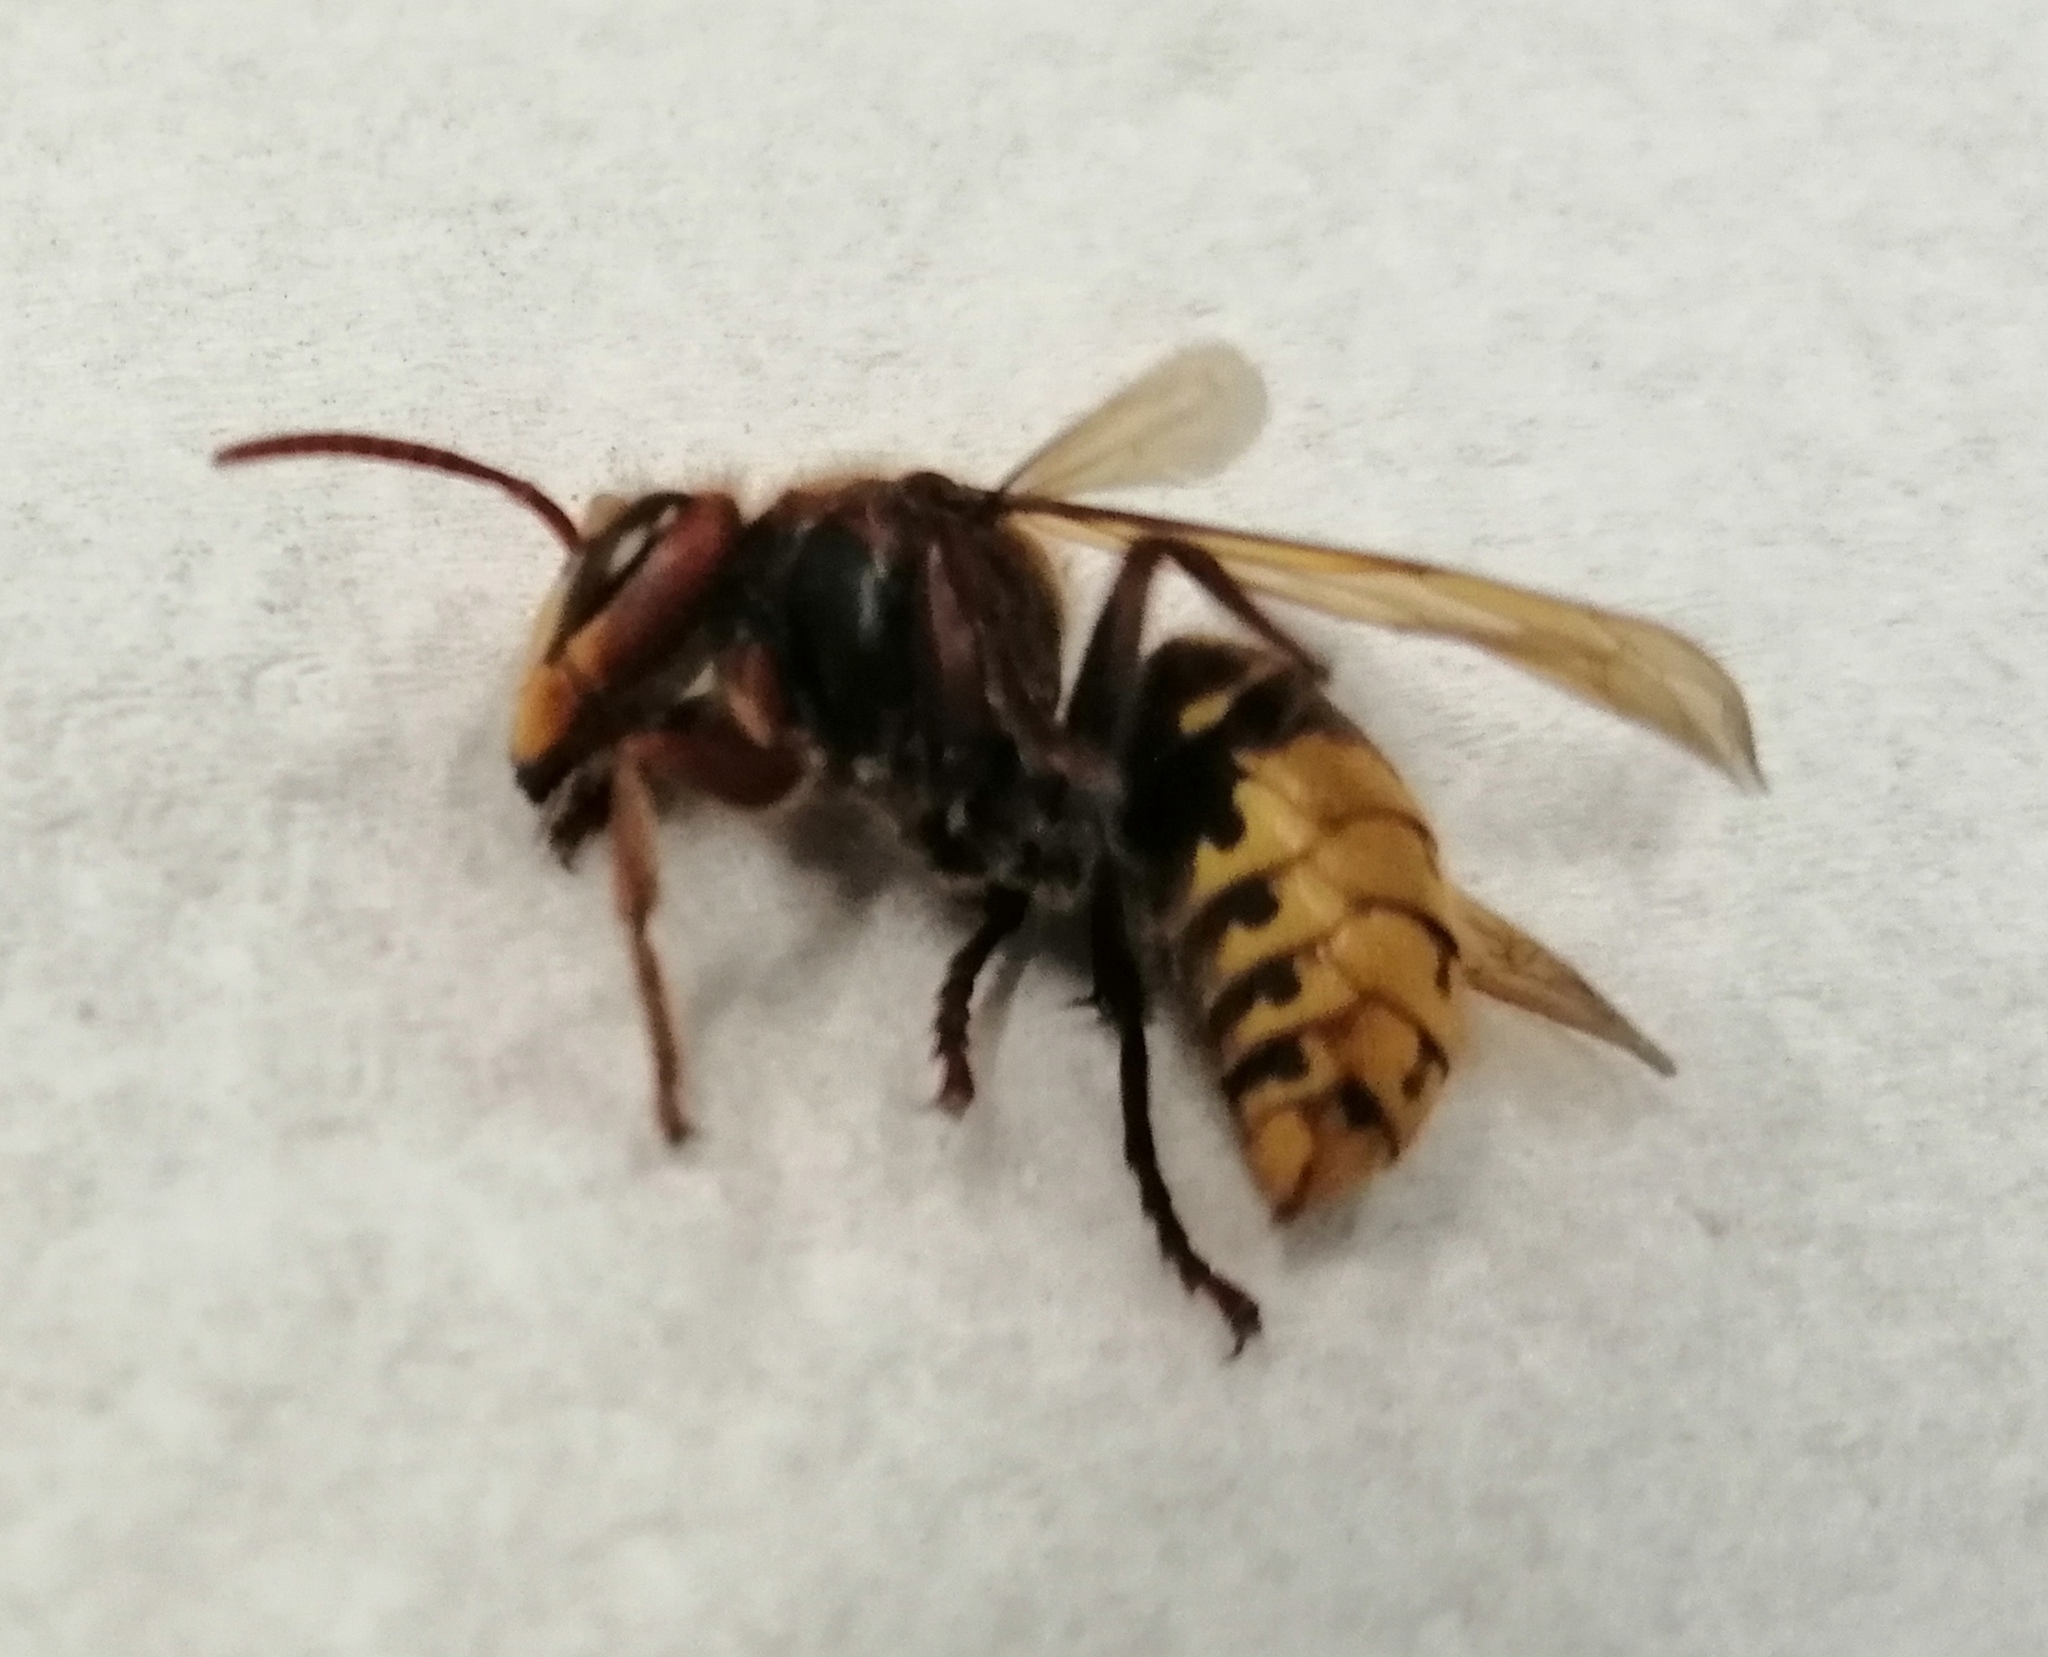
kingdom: Animalia
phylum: Arthropoda
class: Insecta
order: Hymenoptera
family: Vespidae
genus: Vespa
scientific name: Vespa crabro
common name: Hornet
